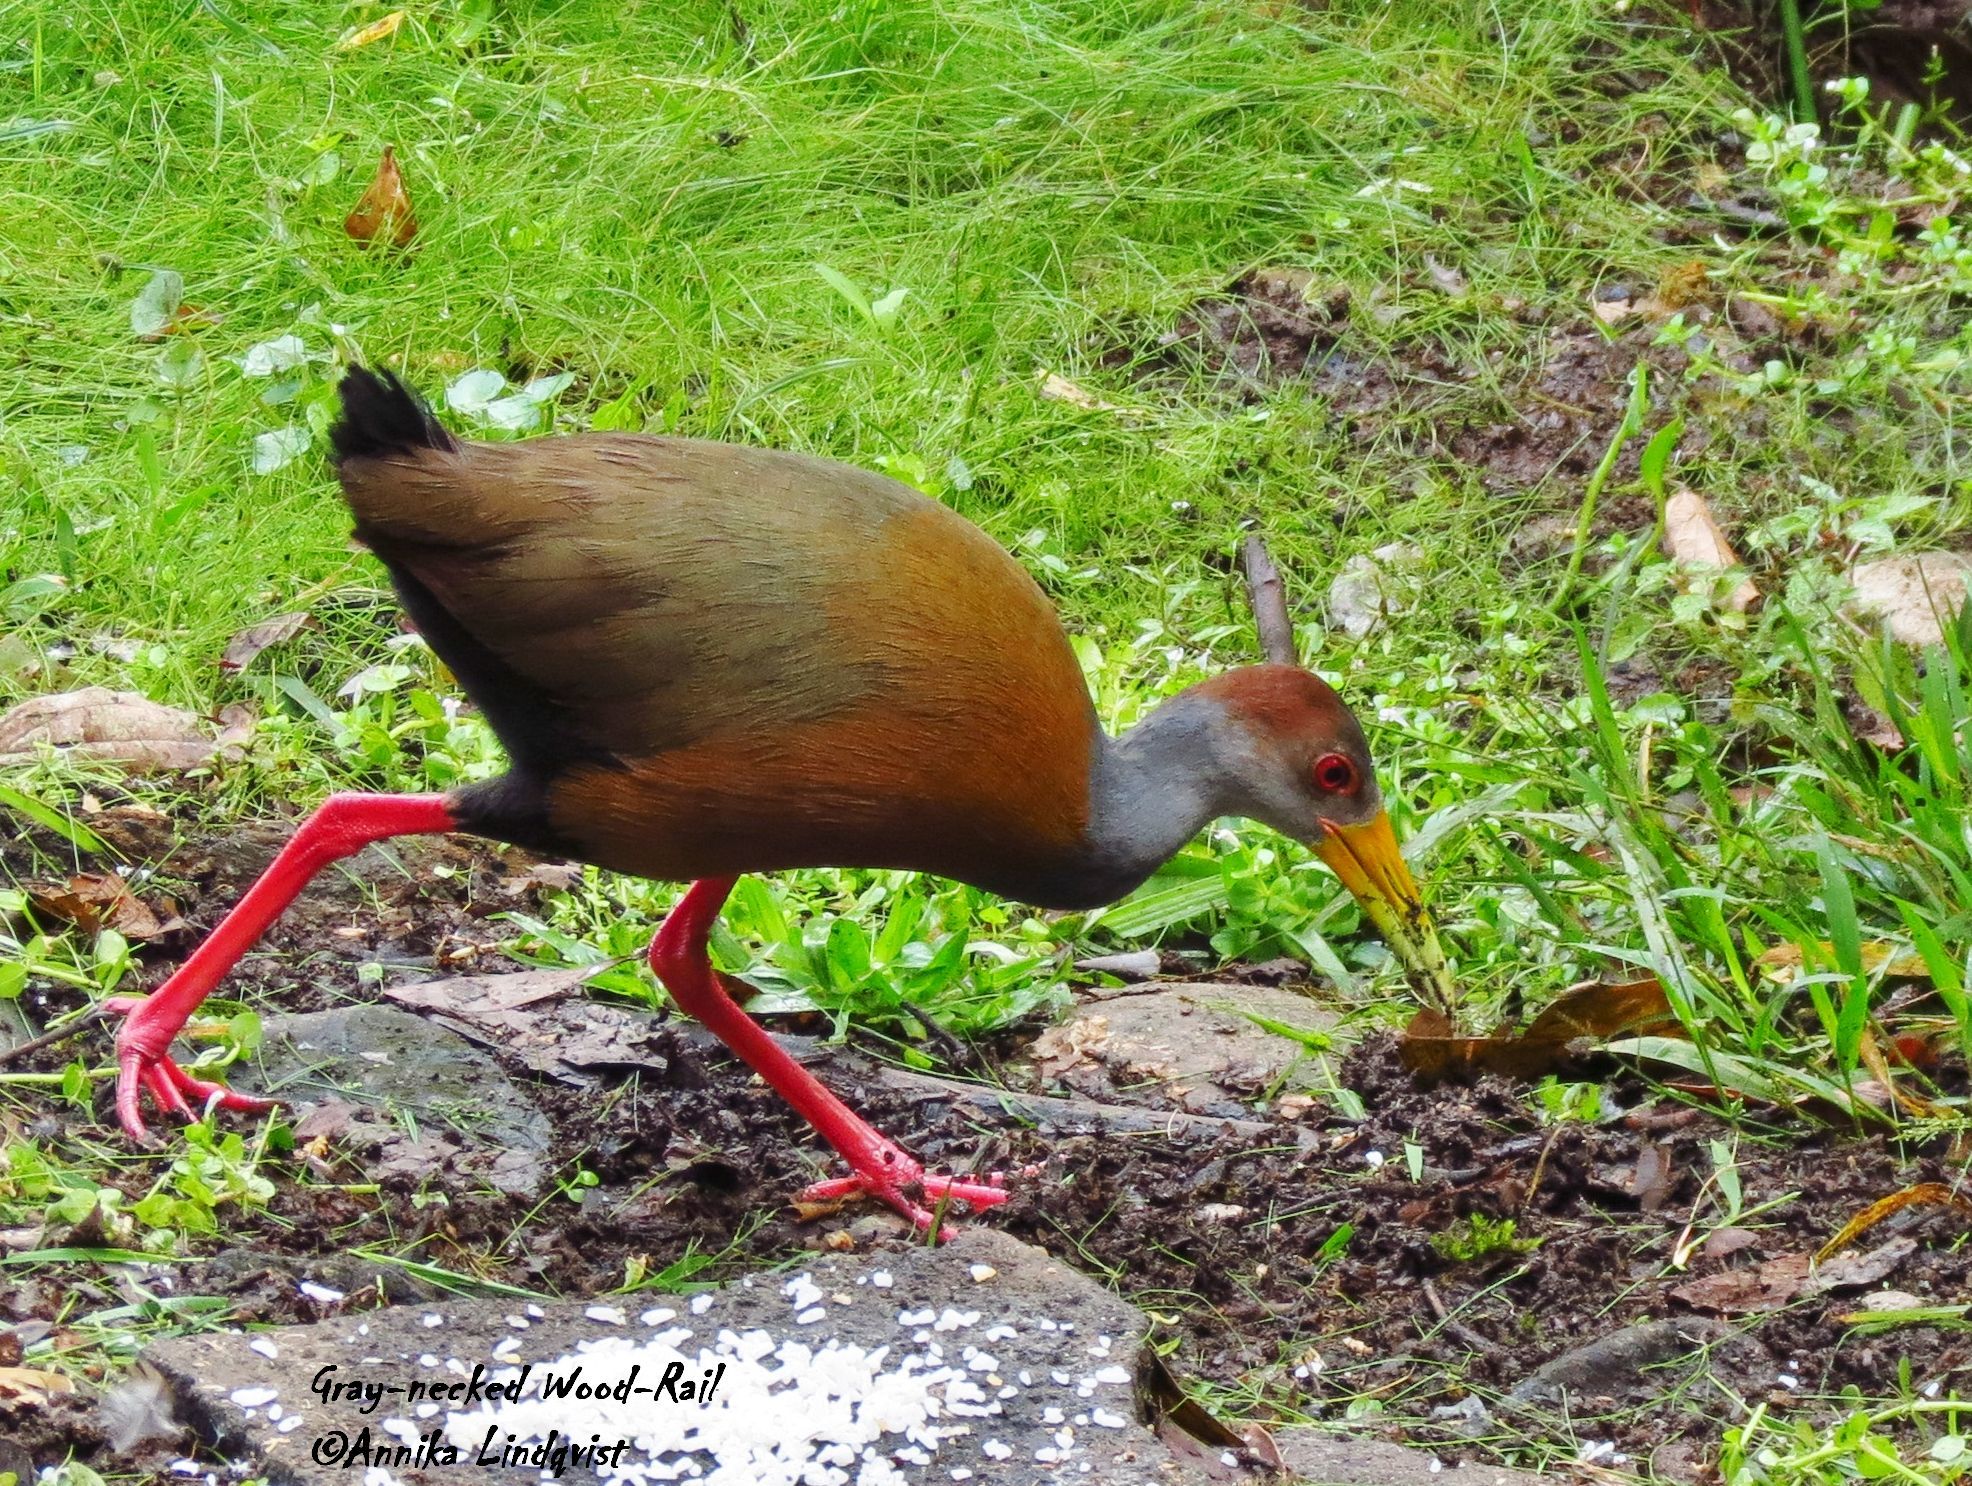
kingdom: Animalia
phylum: Chordata
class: Aves
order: Gruiformes
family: Rallidae
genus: Aramides
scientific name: Aramides albiventris
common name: Russet-naped wood-rail
